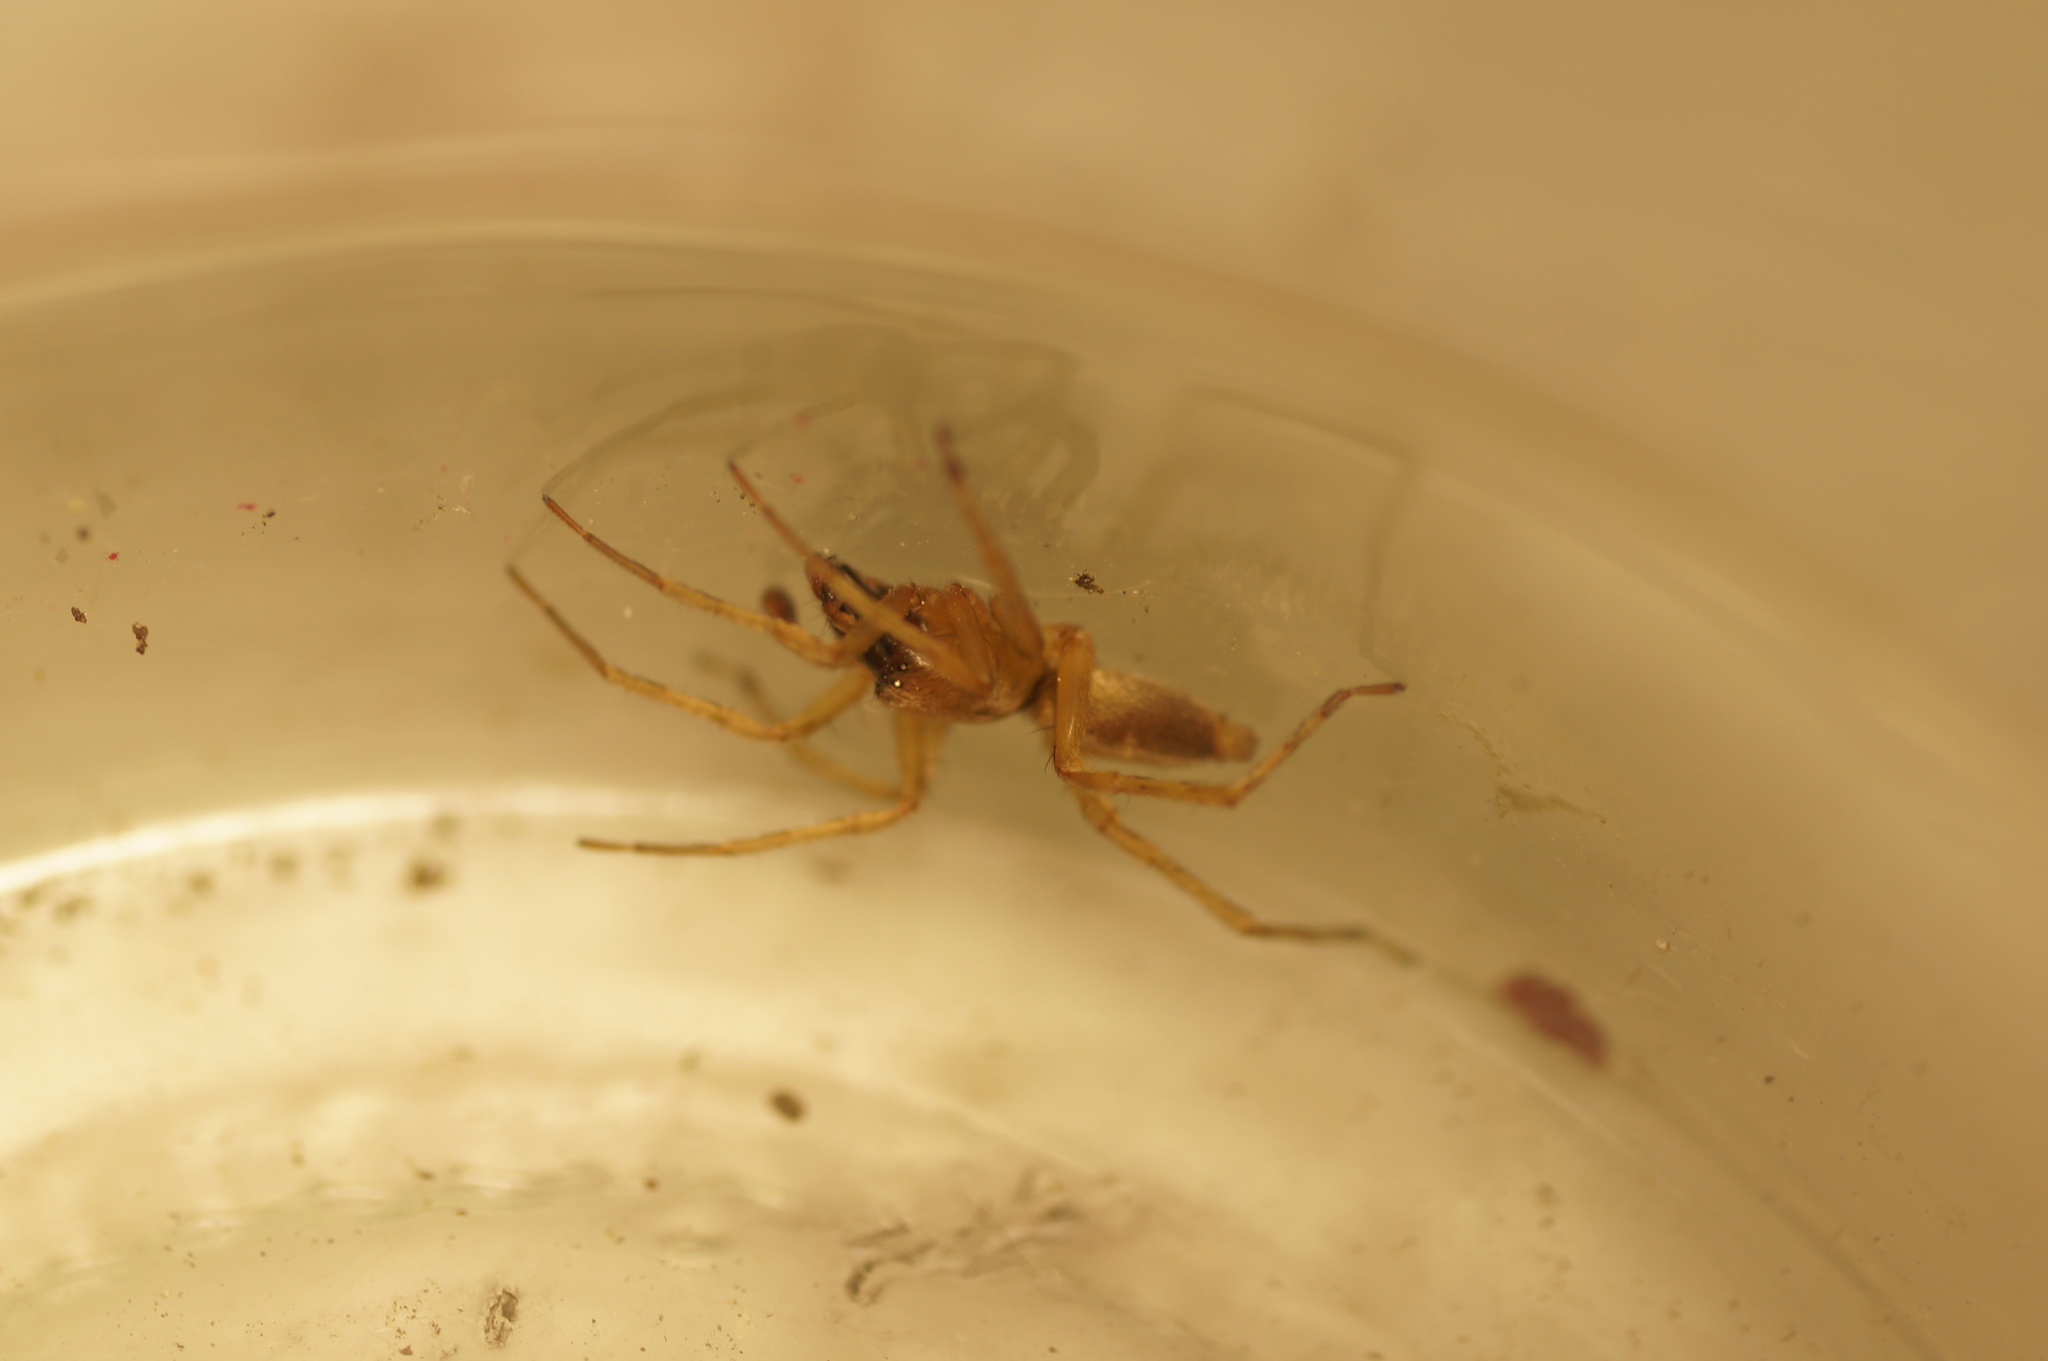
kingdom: Animalia
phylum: Arthropoda
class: Arachnida
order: Araneae
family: Clubionidae
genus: Clubiona
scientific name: Clubiona lutescens
